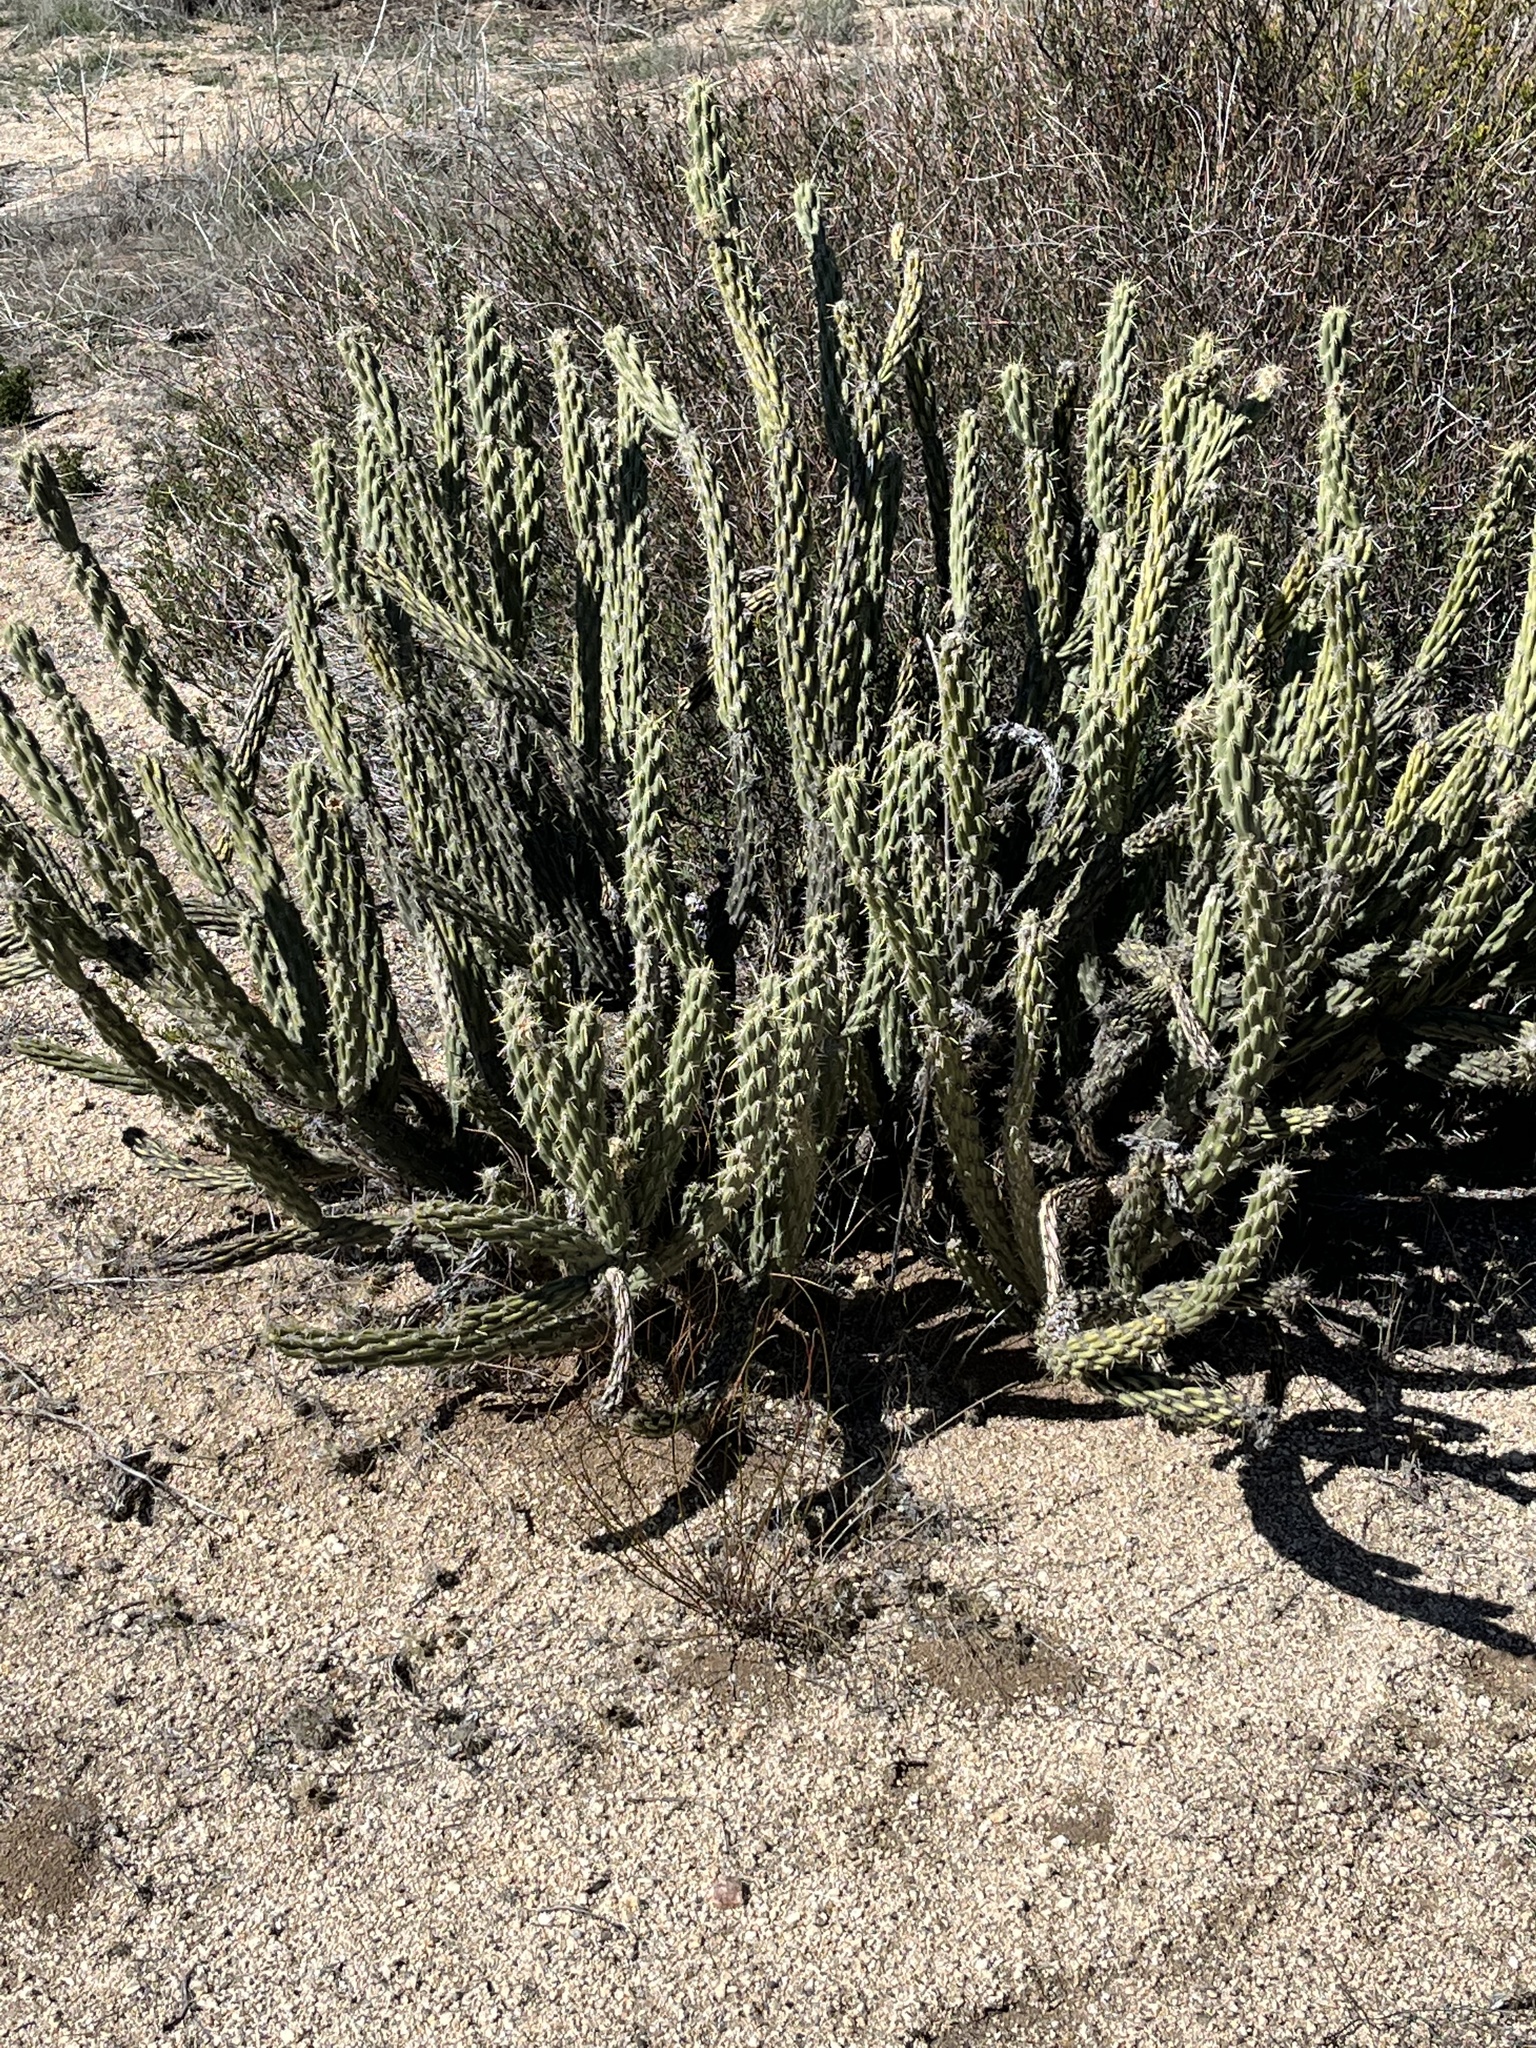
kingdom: Plantae
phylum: Tracheophyta
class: Magnoliopsida
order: Caryophyllales
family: Cactaceae
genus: Cylindropuntia
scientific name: Cylindropuntia bernardina
